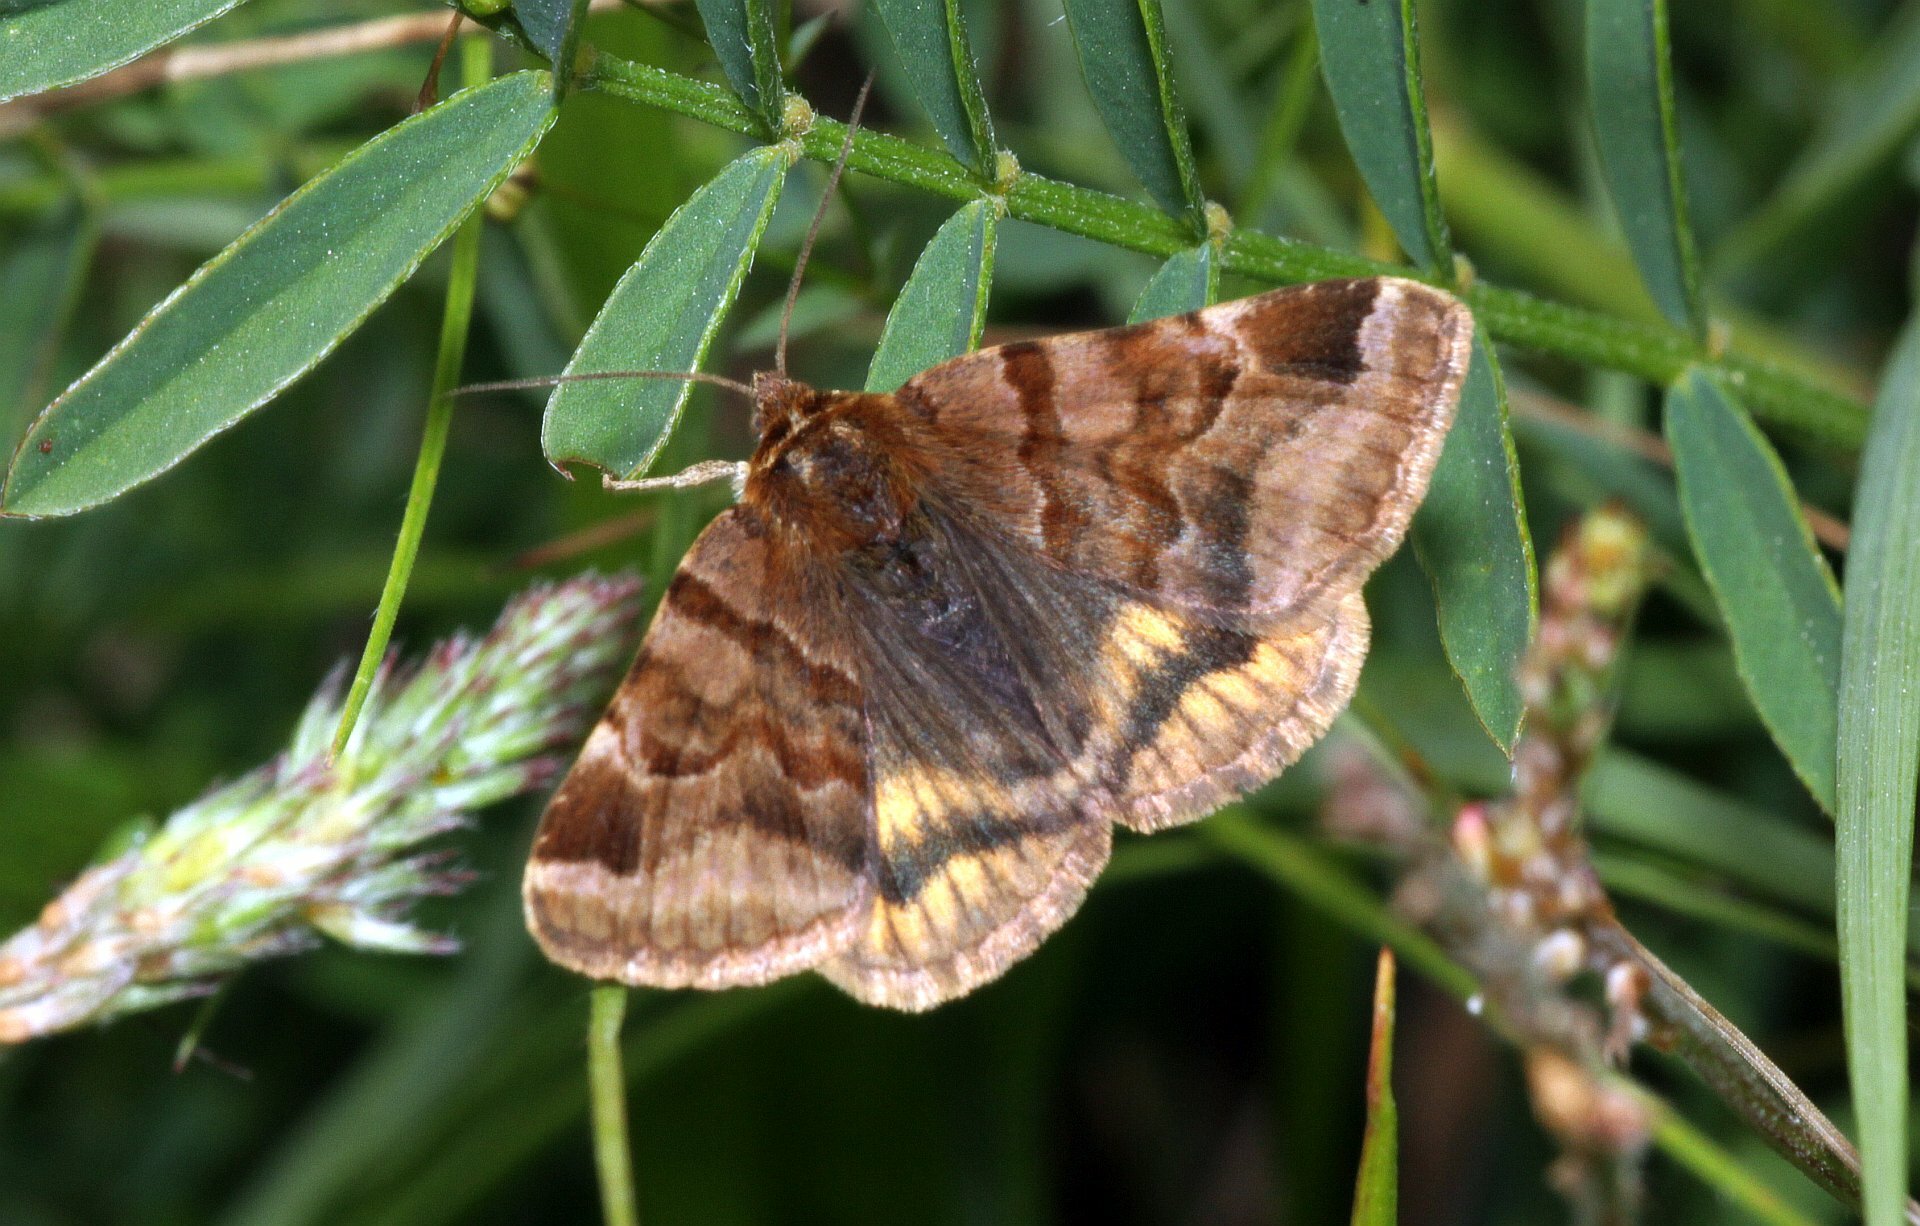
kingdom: Animalia
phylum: Arthropoda
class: Insecta
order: Lepidoptera
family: Erebidae
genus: Euclidia
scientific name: Euclidia glyphica
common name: Burnet companion
